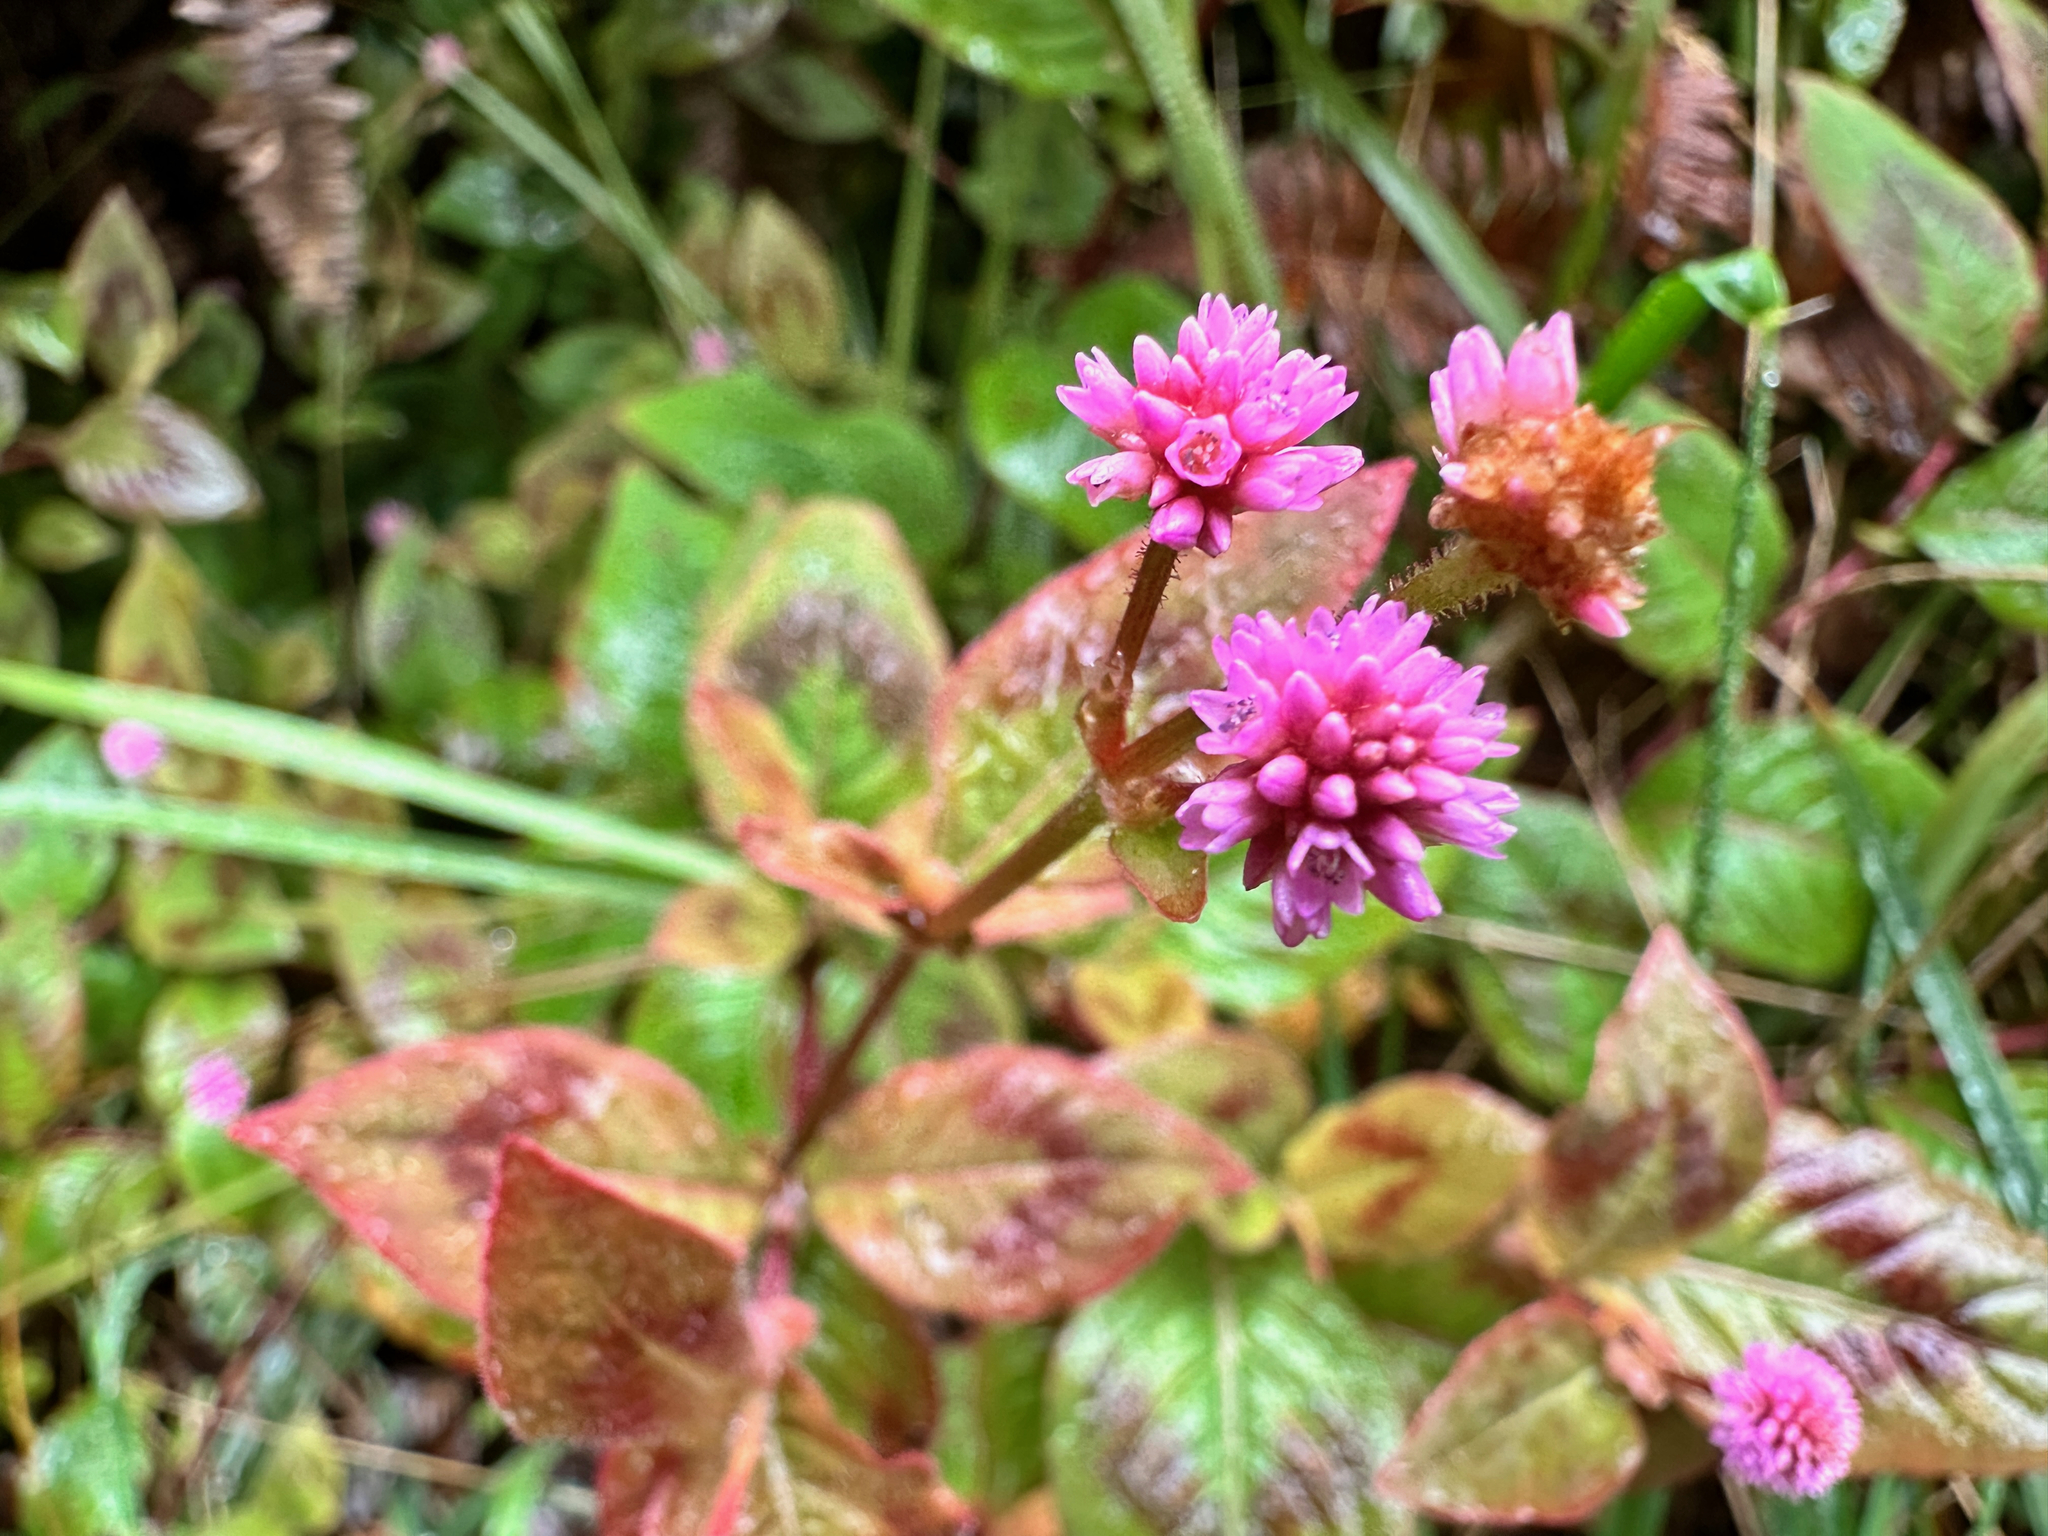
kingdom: Plantae
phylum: Tracheophyta
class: Magnoliopsida
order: Caryophyllales
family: Polygonaceae
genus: Persicaria
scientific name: Persicaria capitata
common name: Pinkhead smartweed
